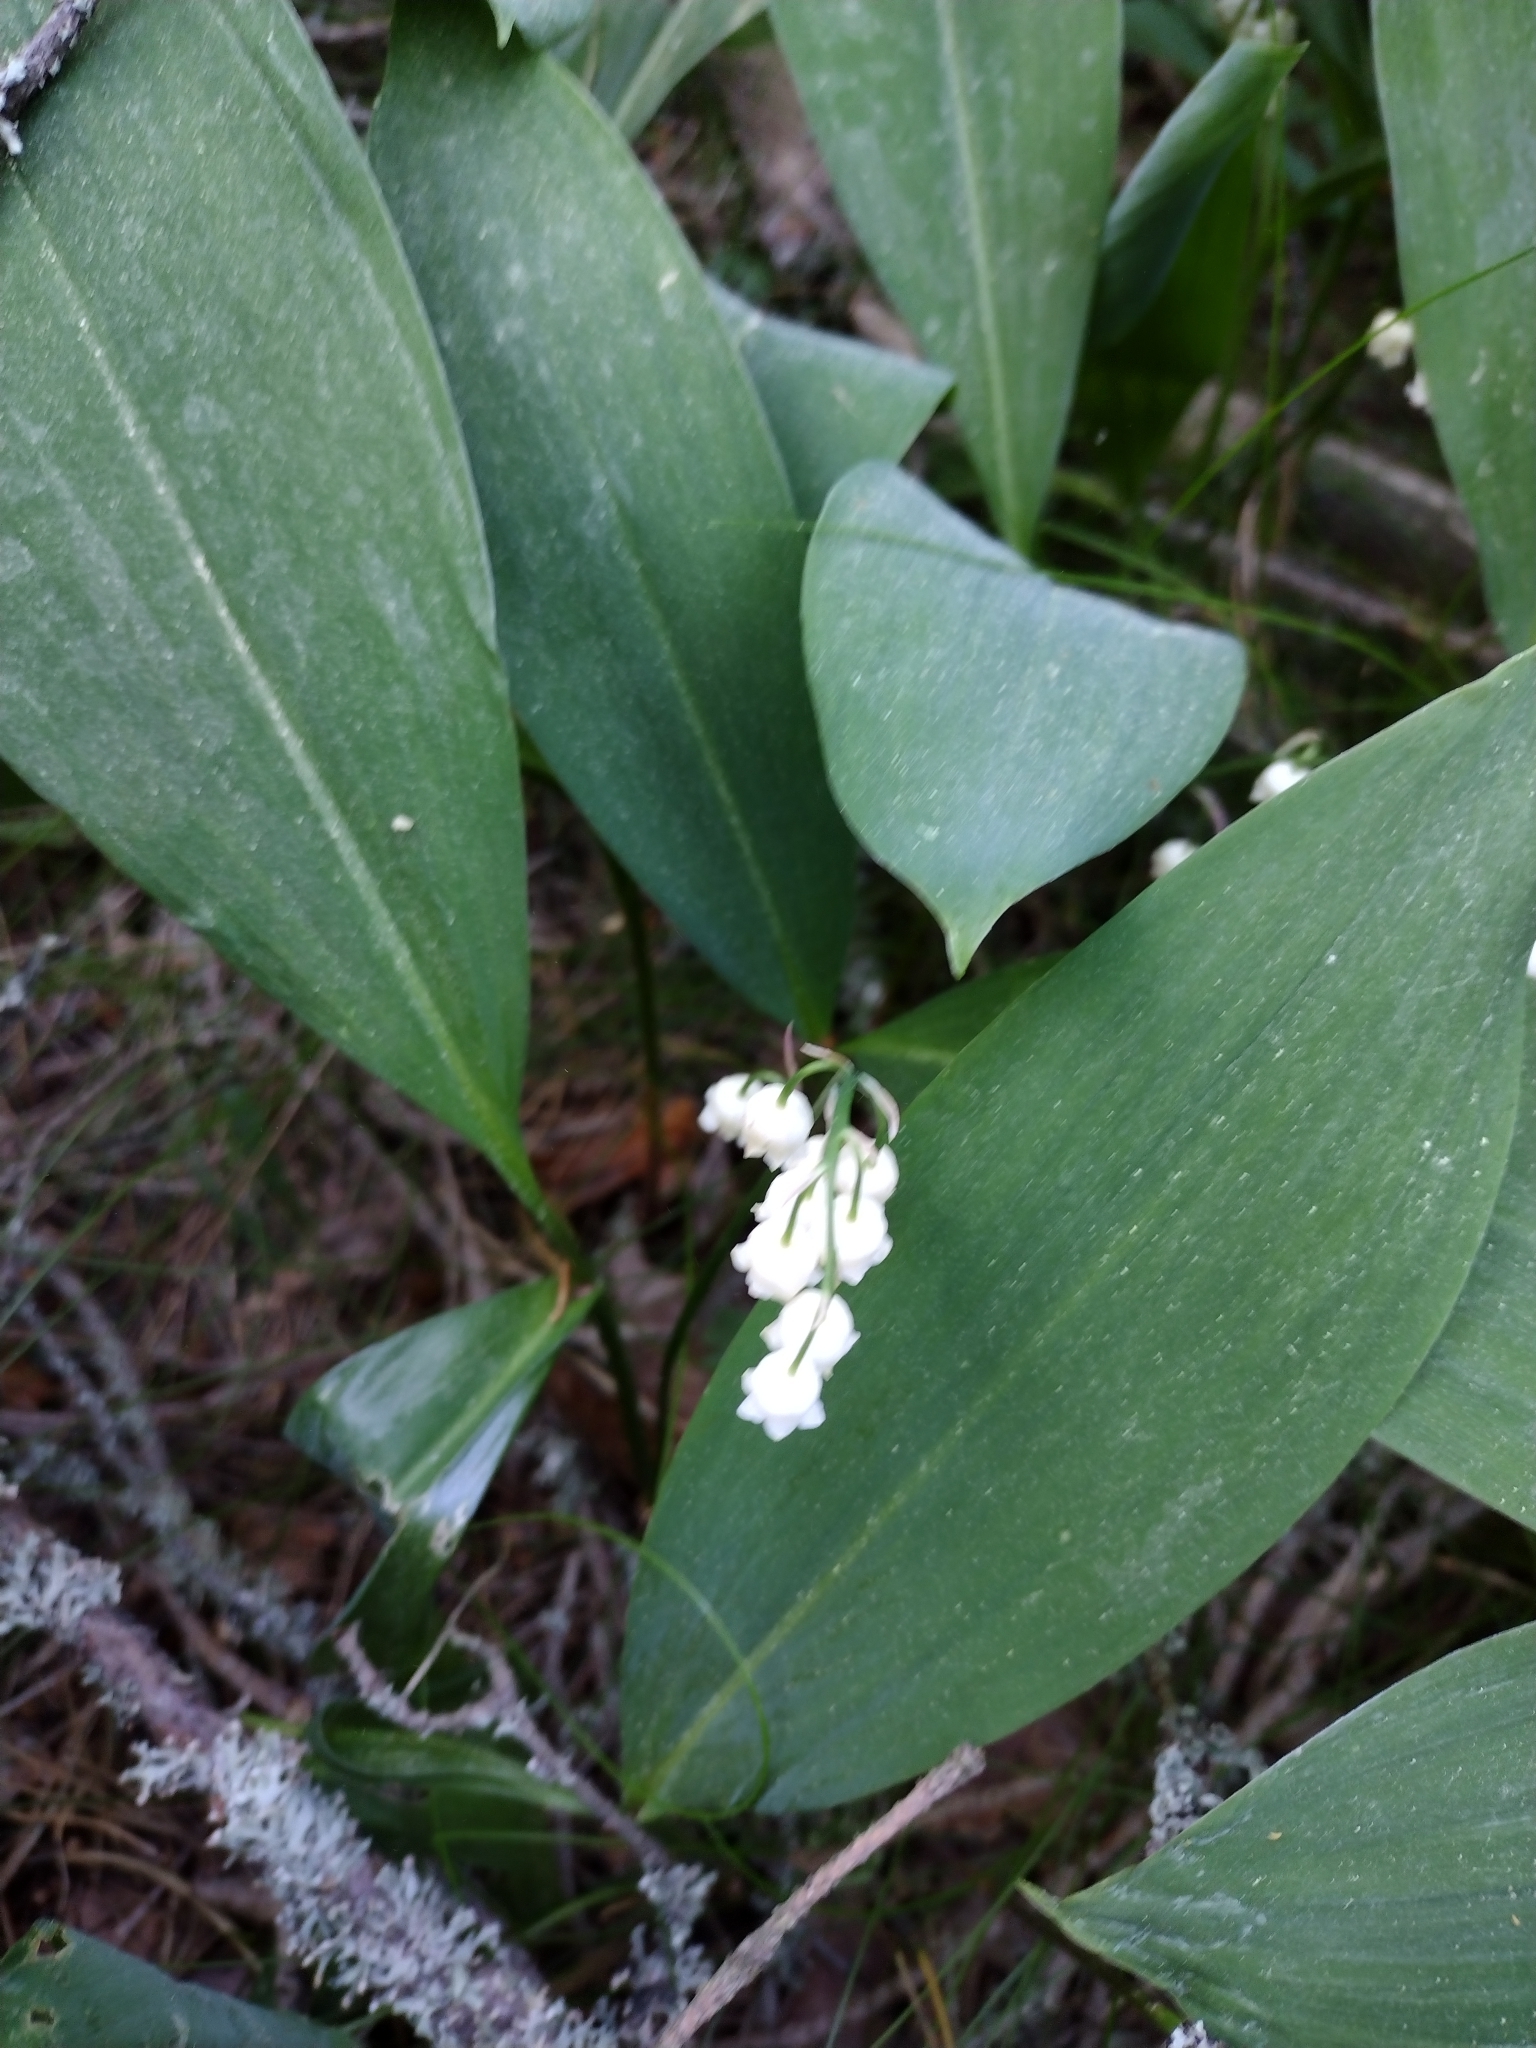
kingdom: Plantae
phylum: Tracheophyta
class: Liliopsida
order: Asparagales
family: Asparagaceae
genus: Convallaria
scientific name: Convallaria majalis
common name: Lily-of-the-valley
